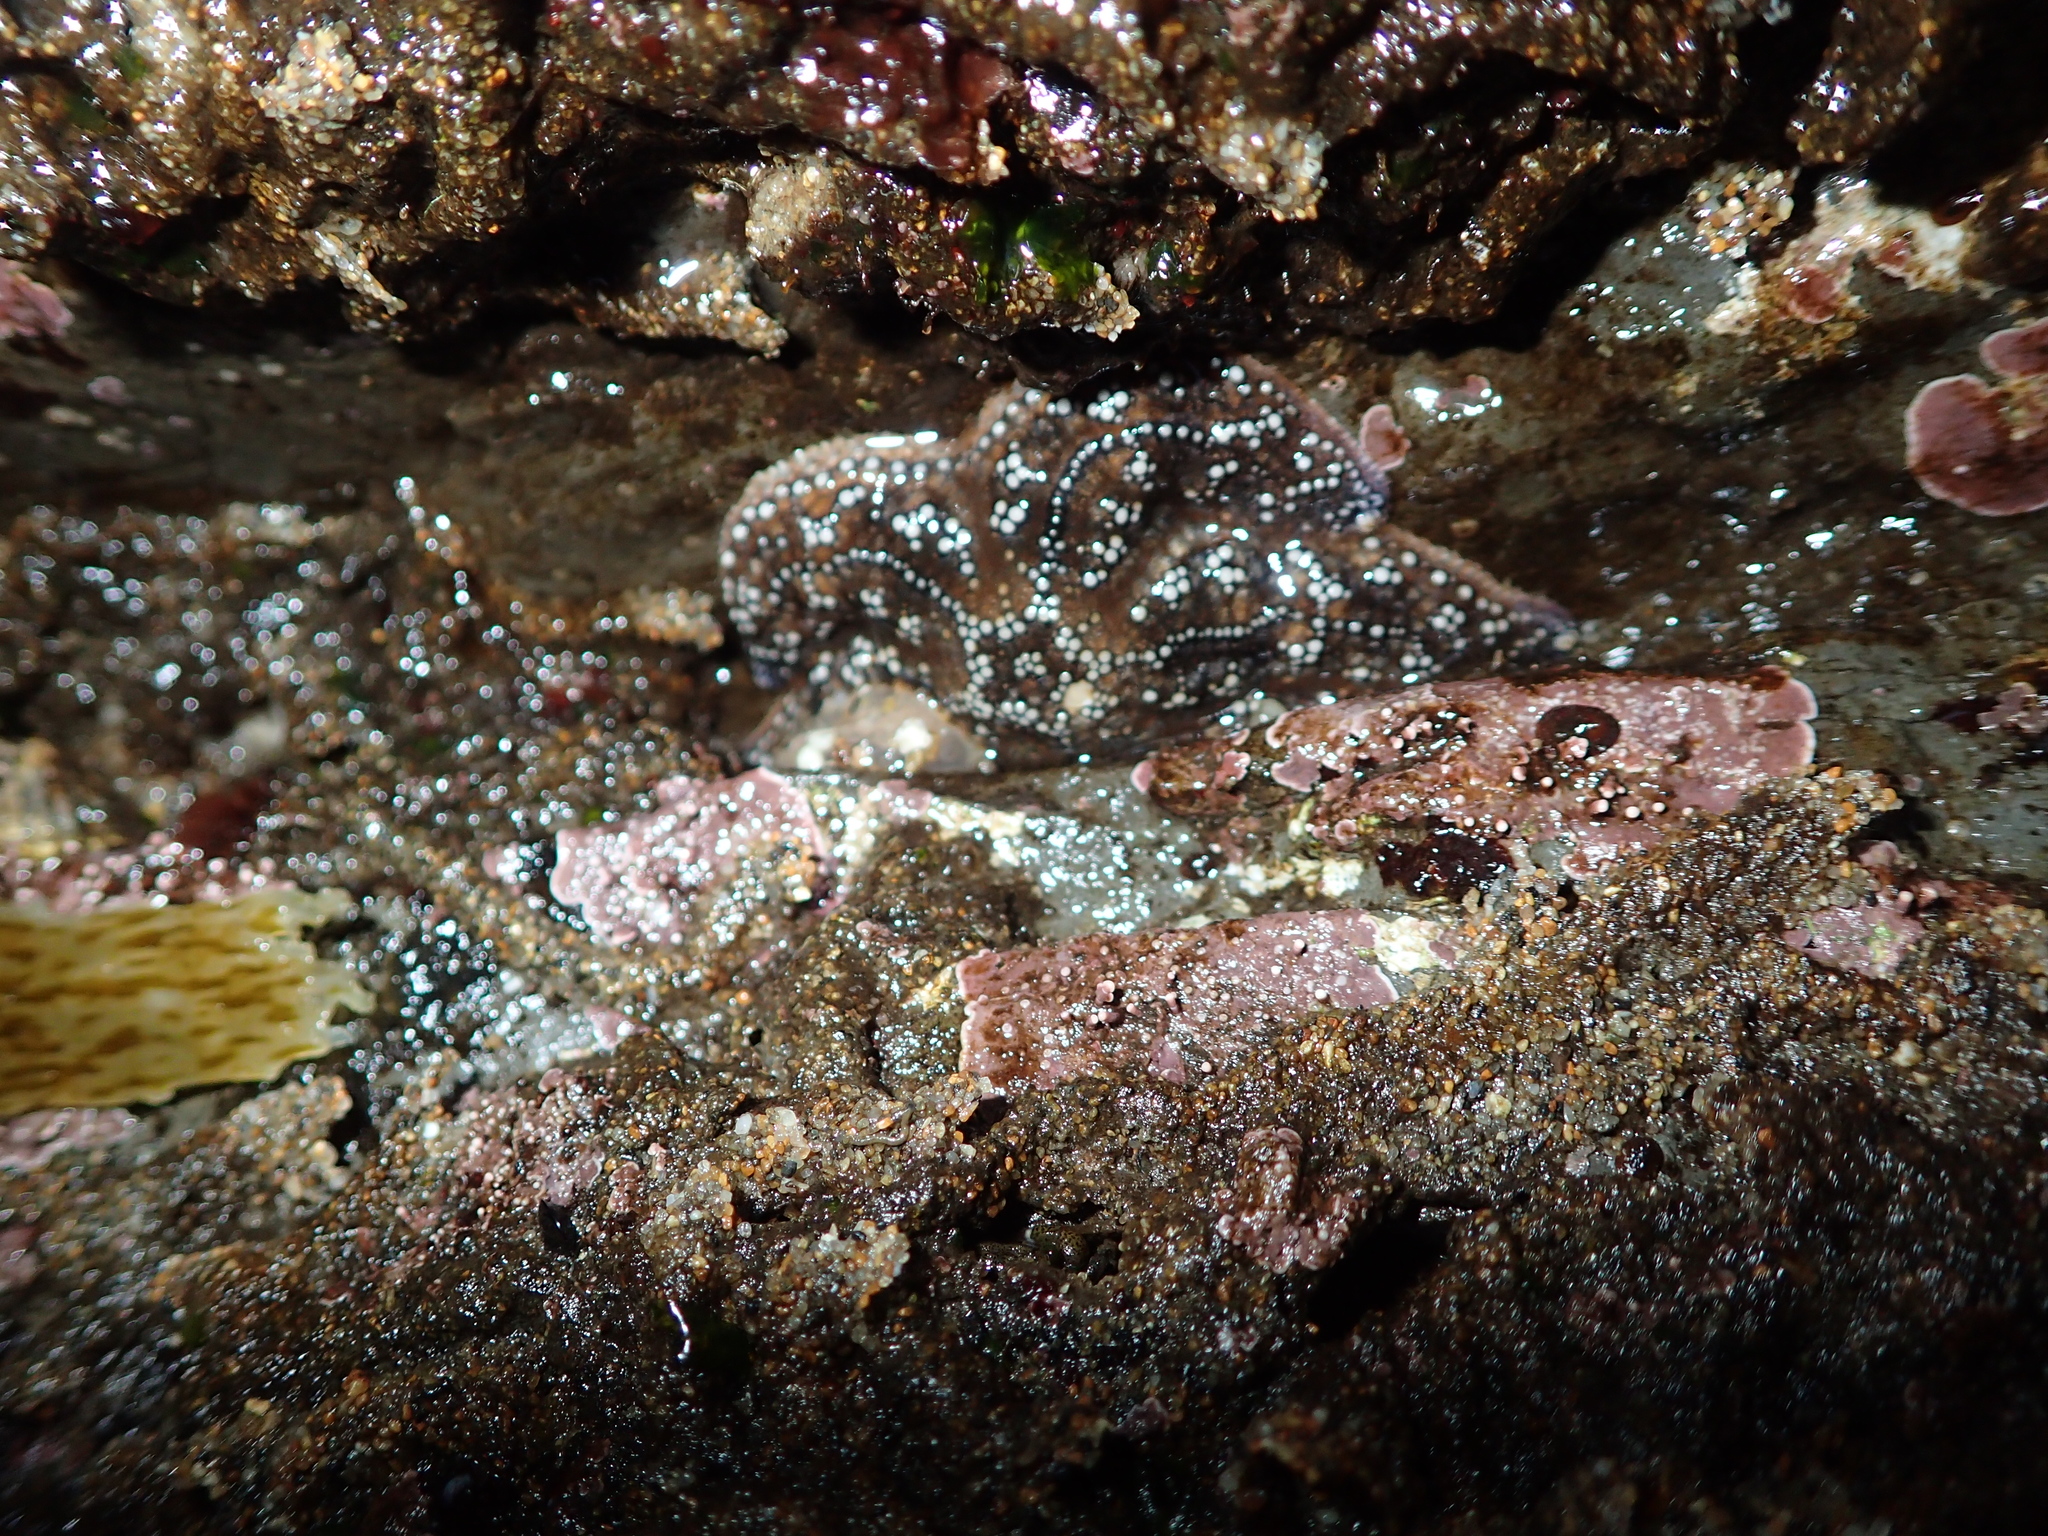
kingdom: Animalia
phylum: Echinodermata
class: Asteroidea
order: Forcipulatida
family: Asteriidae
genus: Pisaster
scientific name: Pisaster ochraceus
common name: Ochre stars
